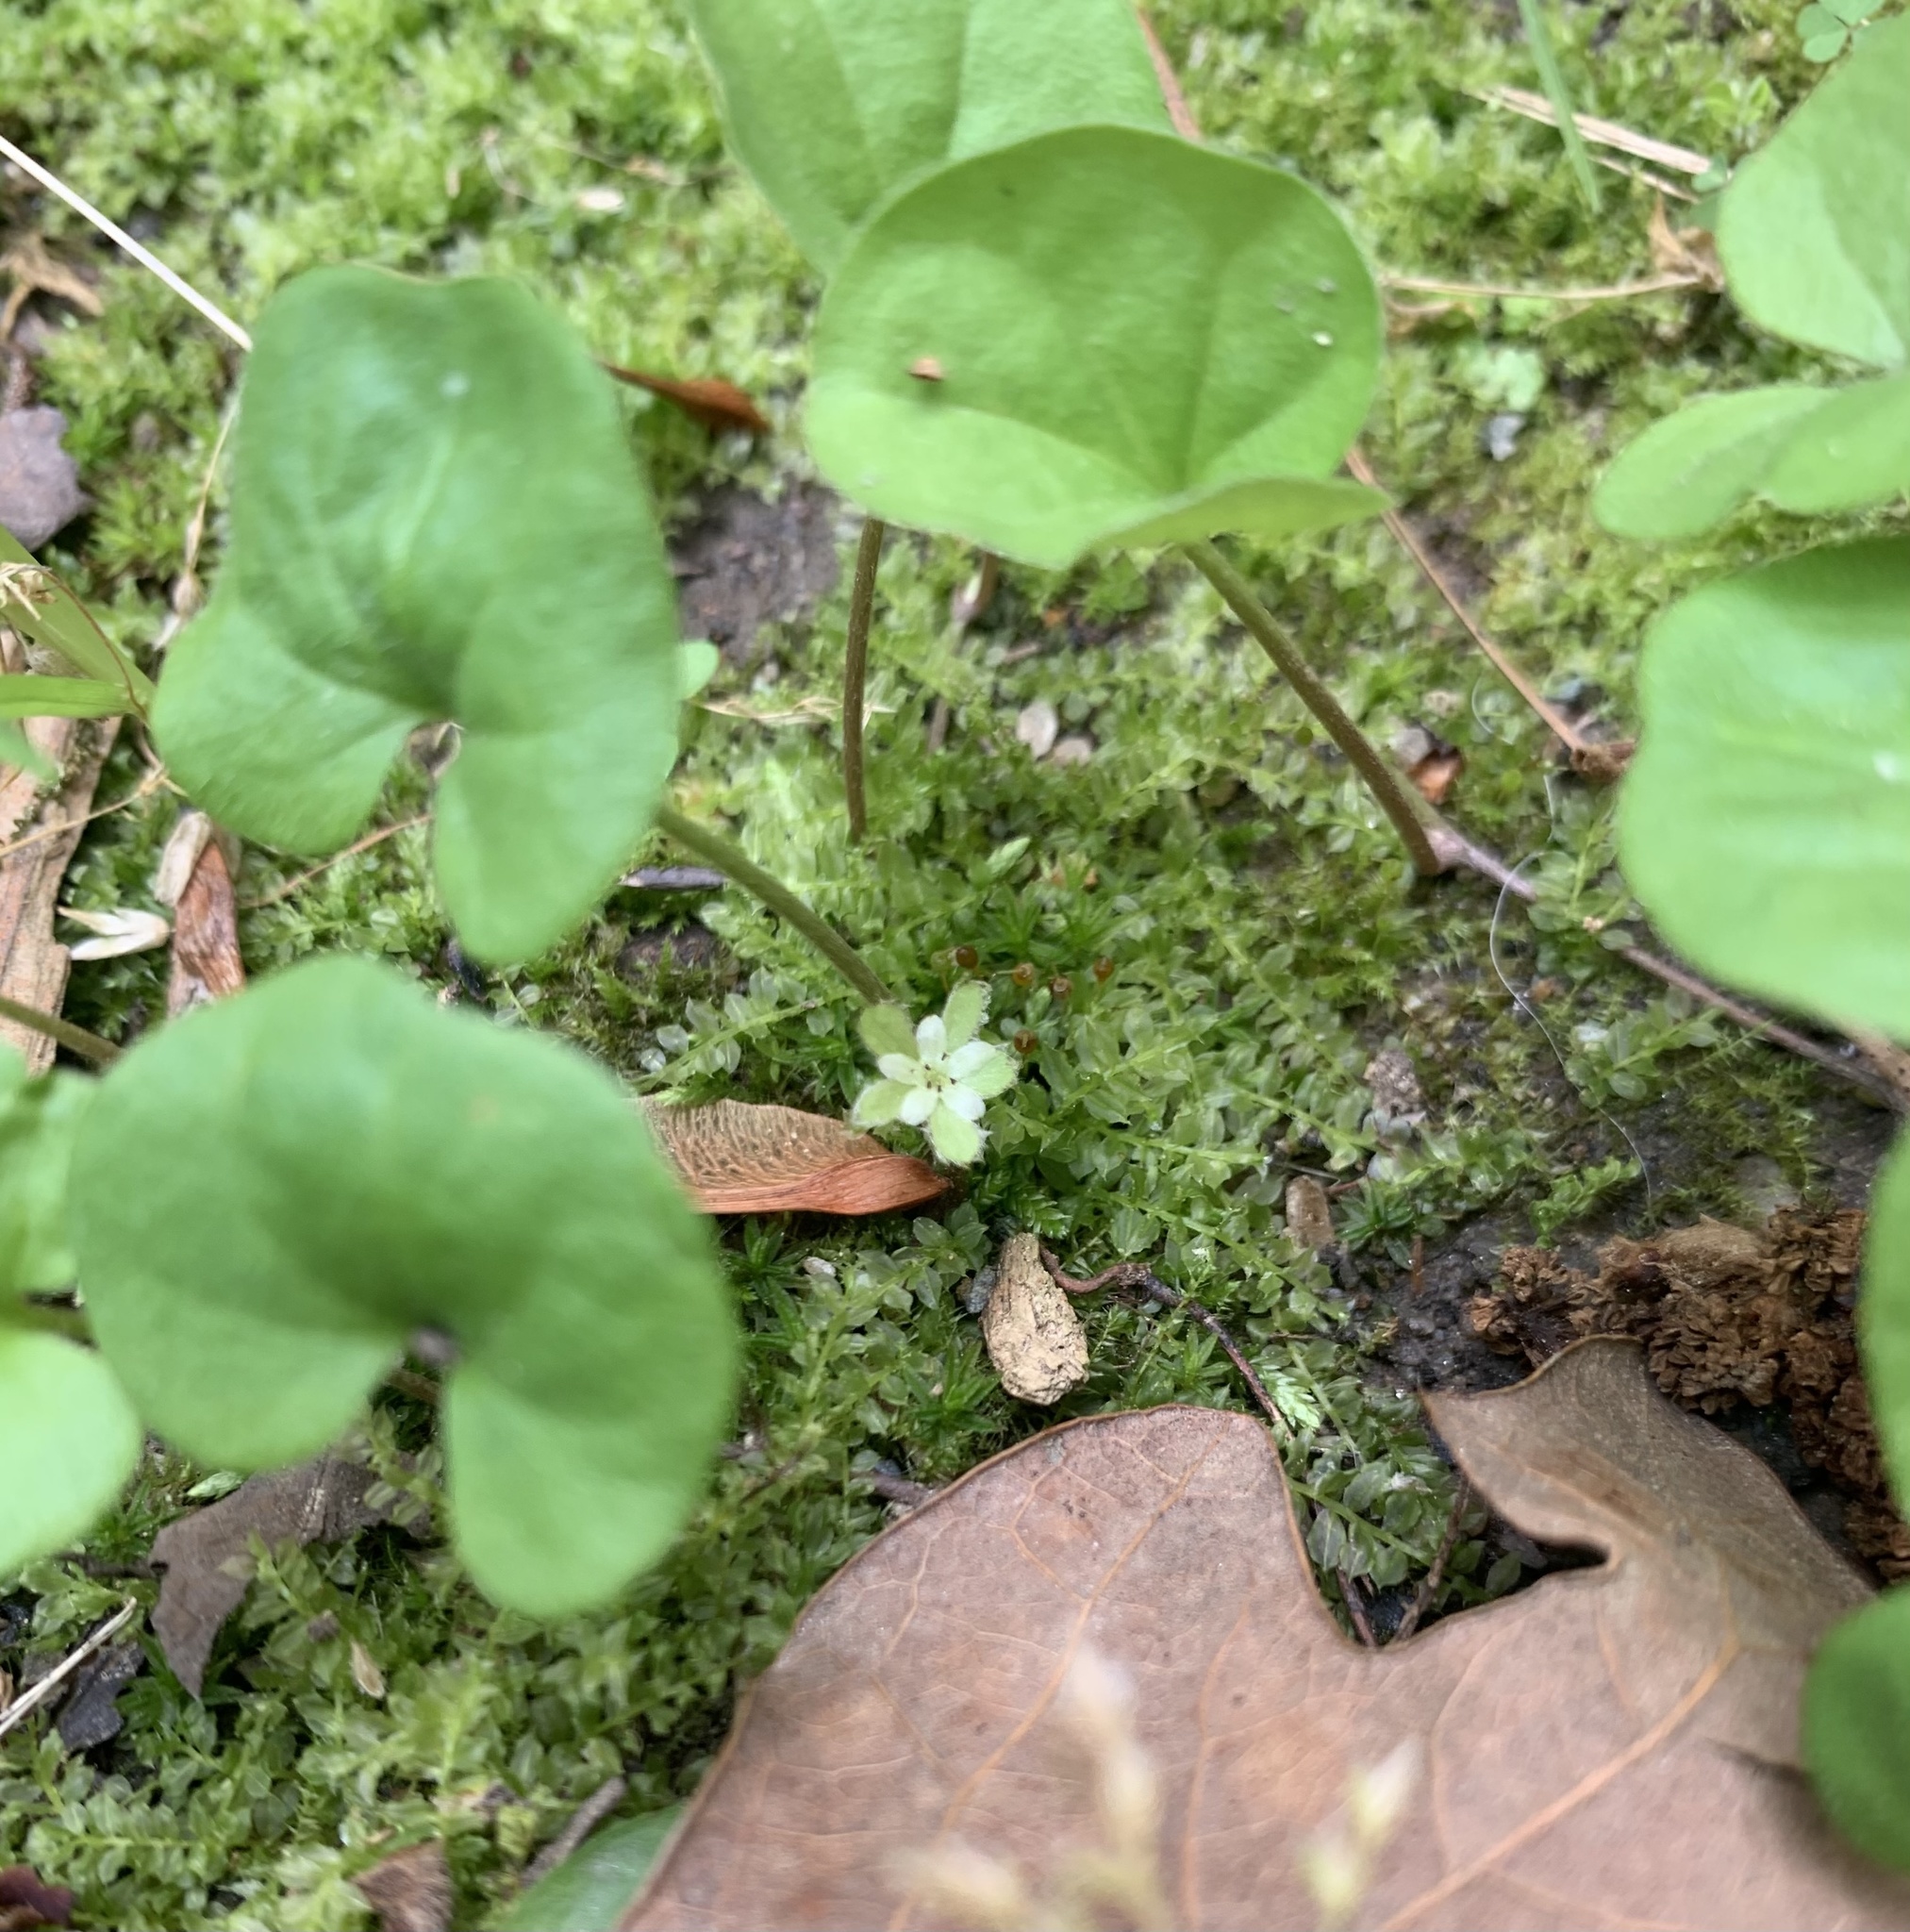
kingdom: Plantae
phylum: Tracheophyta
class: Magnoliopsida
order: Solanales
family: Convolvulaceae
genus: Dichondra
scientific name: Dichondra carolinensis
